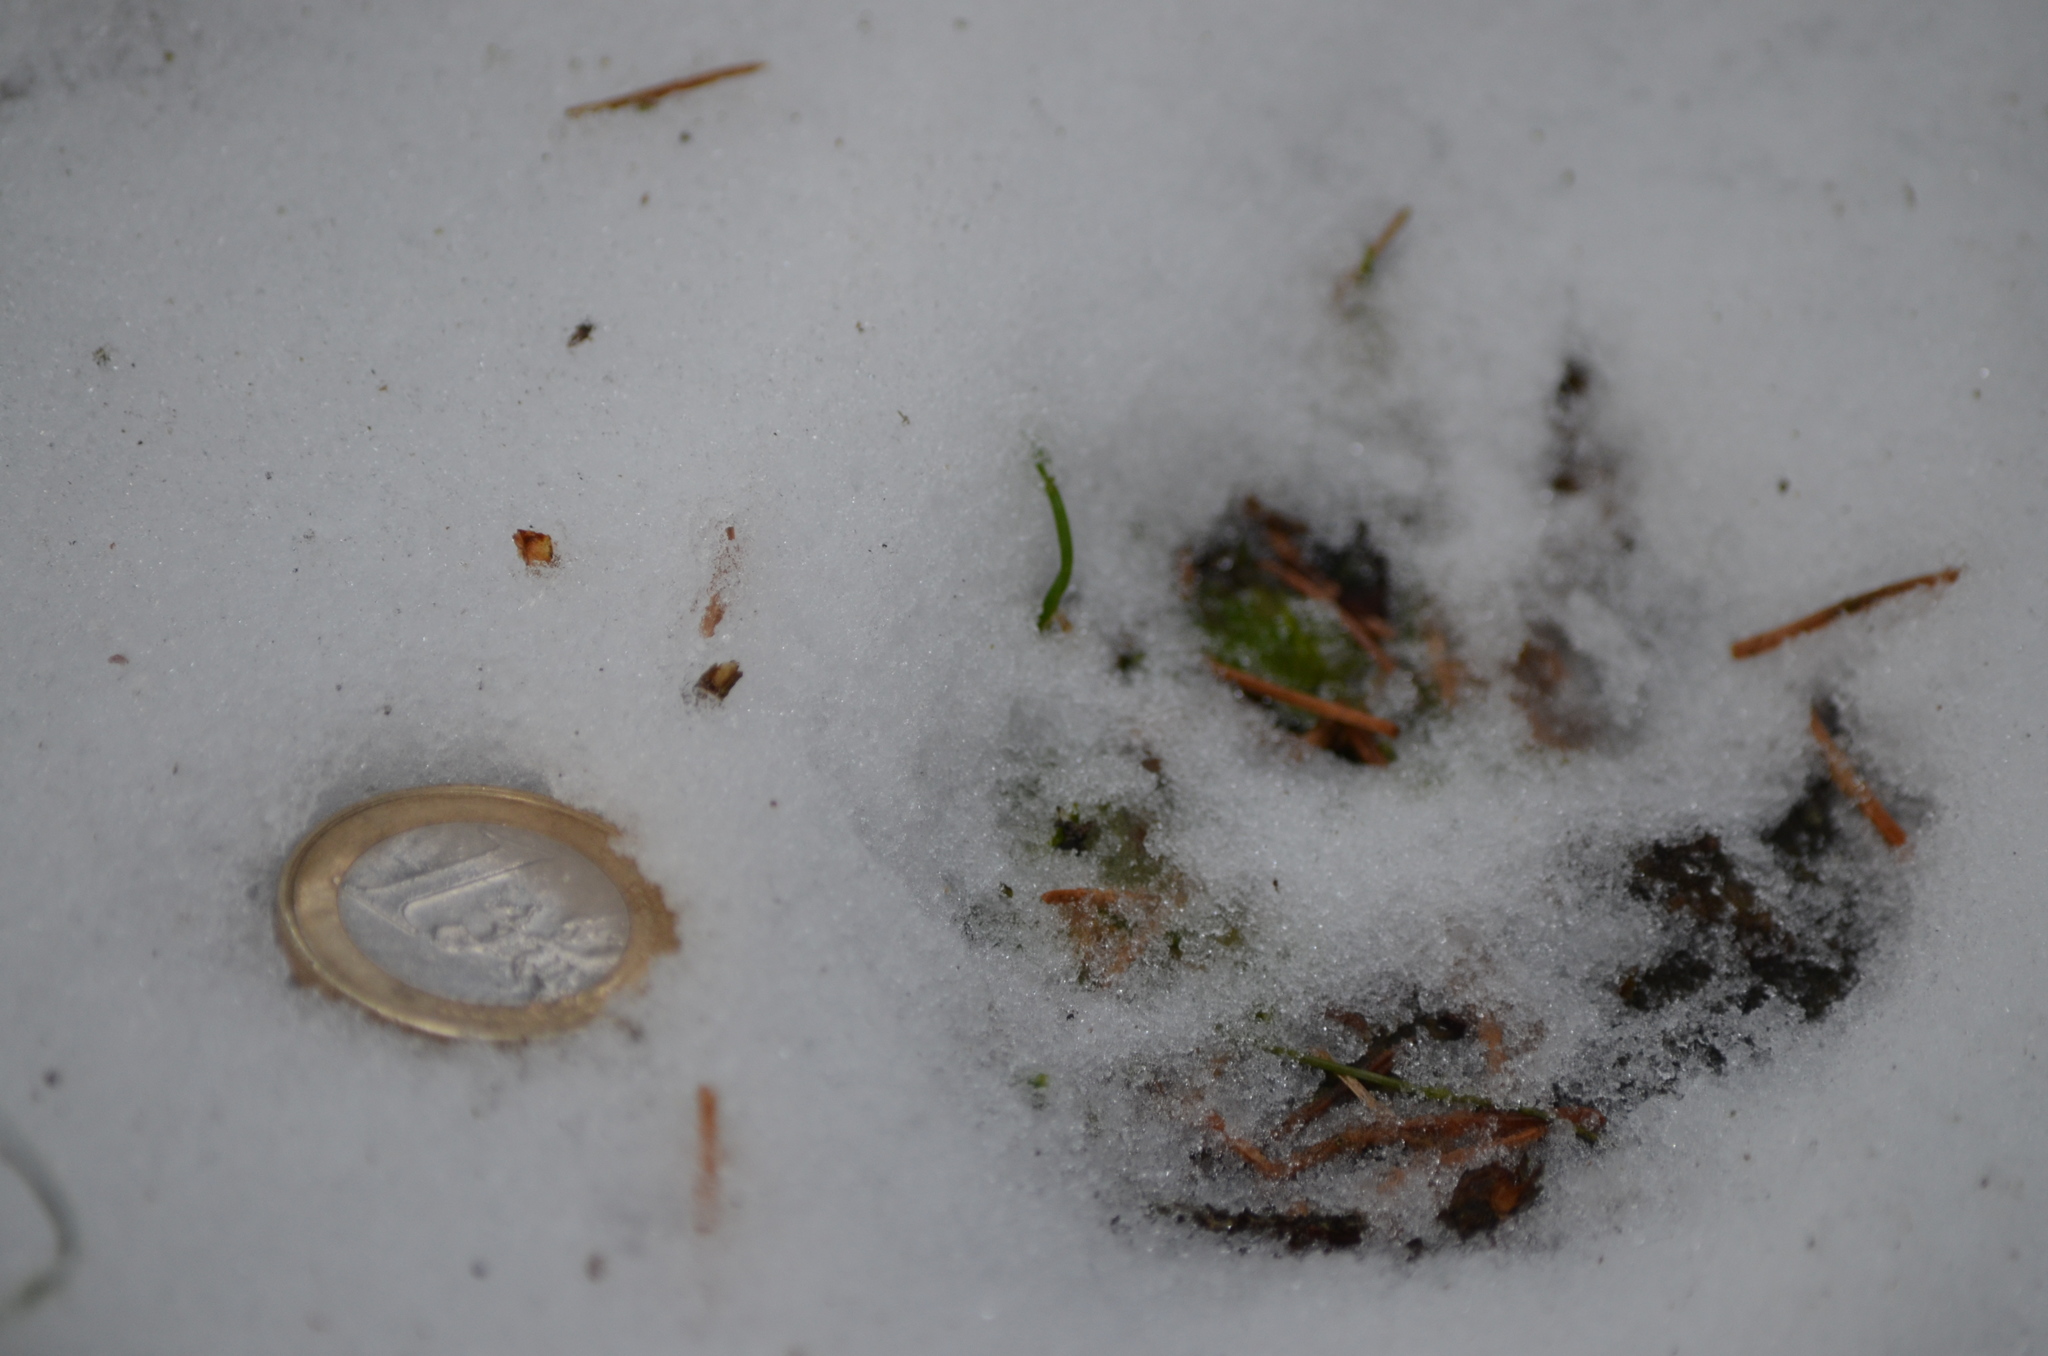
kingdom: Animalia
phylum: Chordata
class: Mammalia
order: Carnivora
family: Canidae
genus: Vulpes
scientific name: Vulpes vulpes
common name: Red fox
